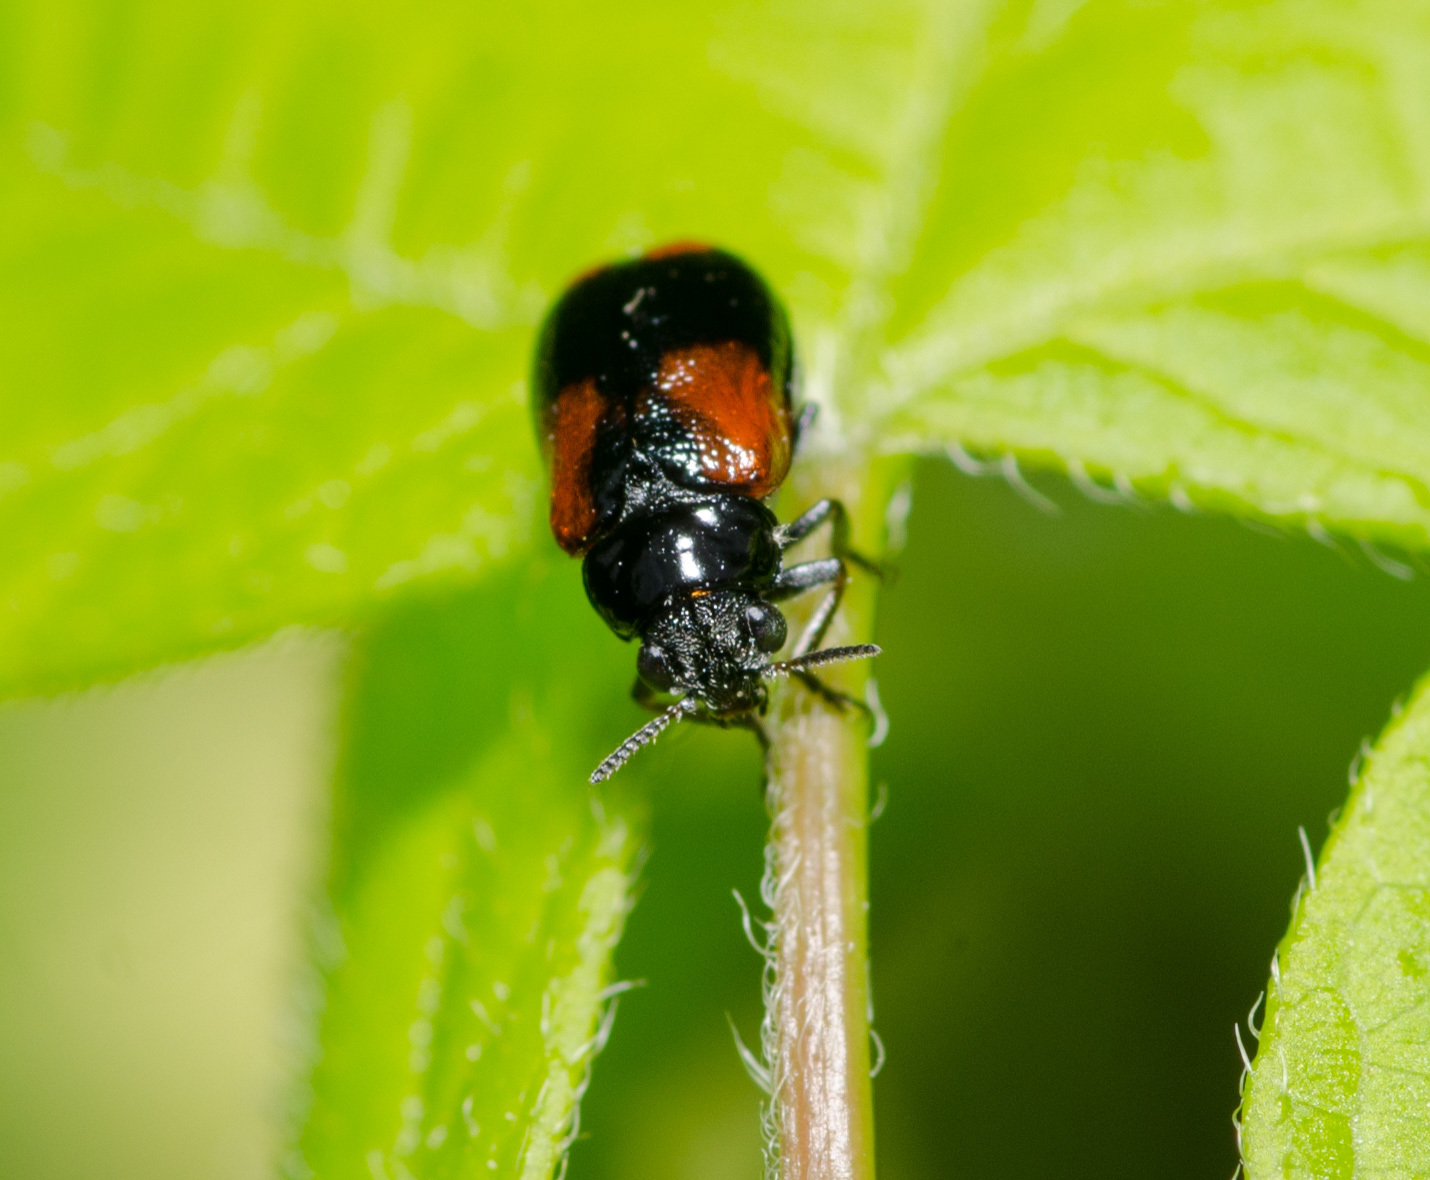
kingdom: Animalia
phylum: Arthropoda
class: Insecta
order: Coleoptera
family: Chrysomelidae
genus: Smaragdina
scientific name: Smaragdina militaris
